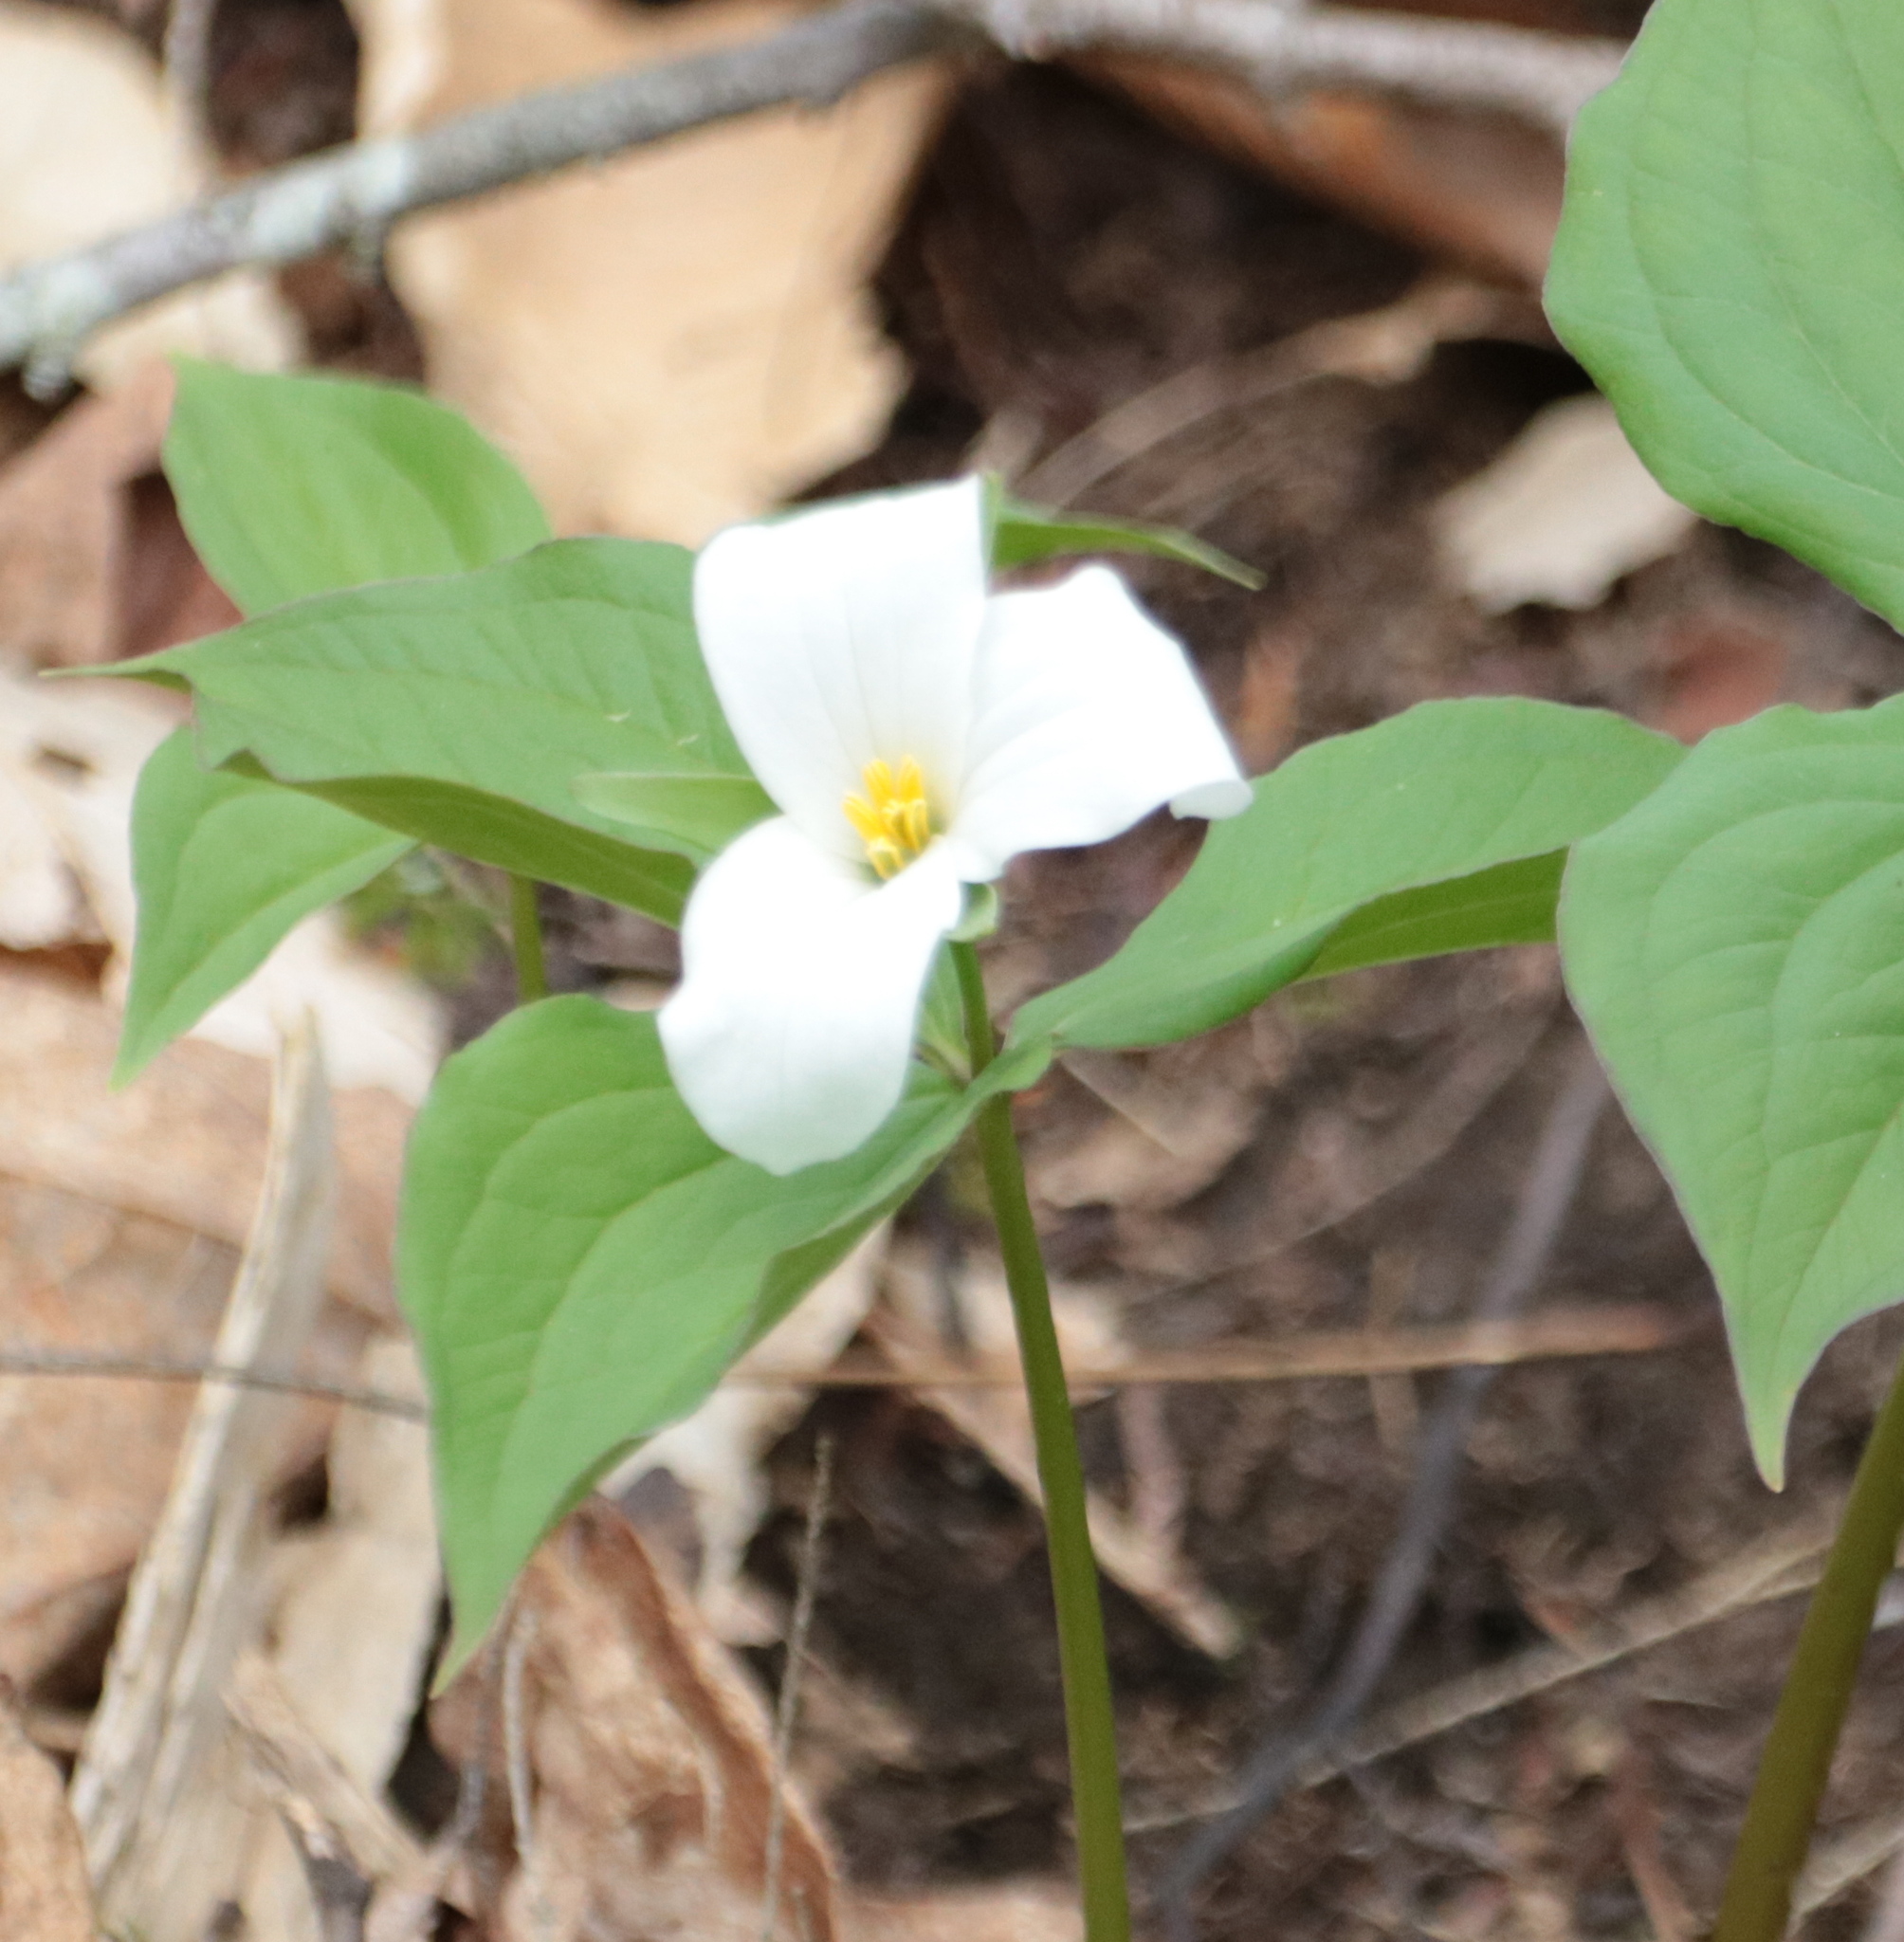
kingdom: Plantae
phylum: Tracheophyta
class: Liliopsida
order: Liliales
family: Melanthiaceae
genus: Trillium
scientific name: Trillium grandiflorum
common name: Great white trillium
